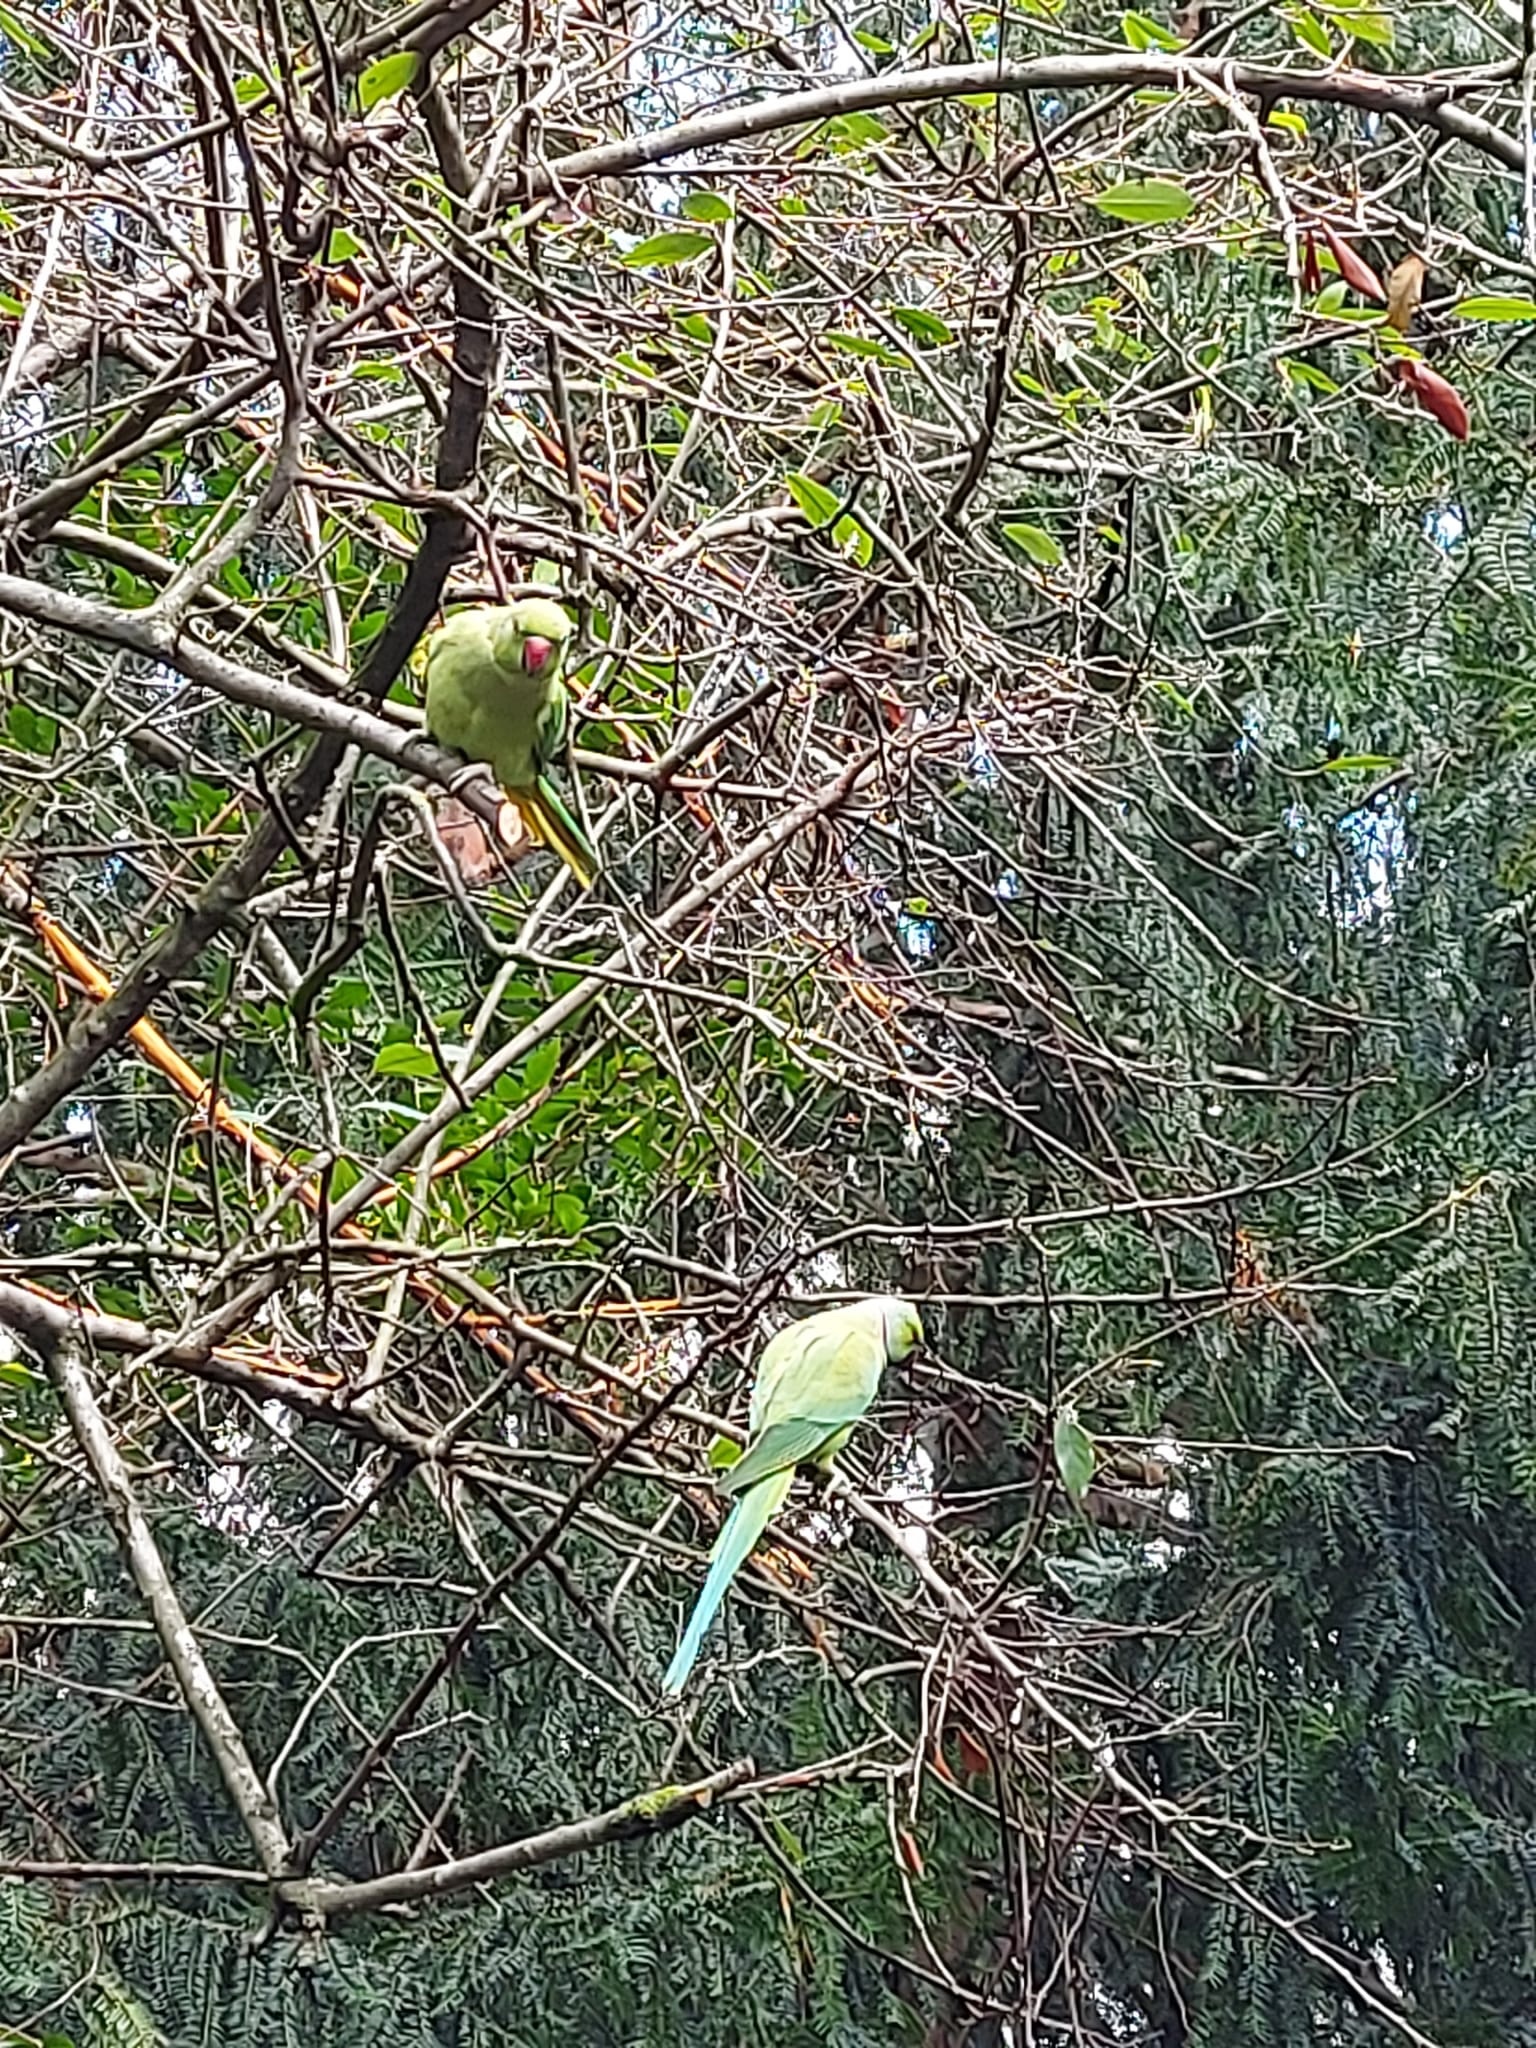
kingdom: Animalia
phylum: Chordata
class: Aves
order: Psittaciformes
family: Psittacidae
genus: Psittacula
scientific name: Psittacula krameri
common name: Rose-ringed parakeet
